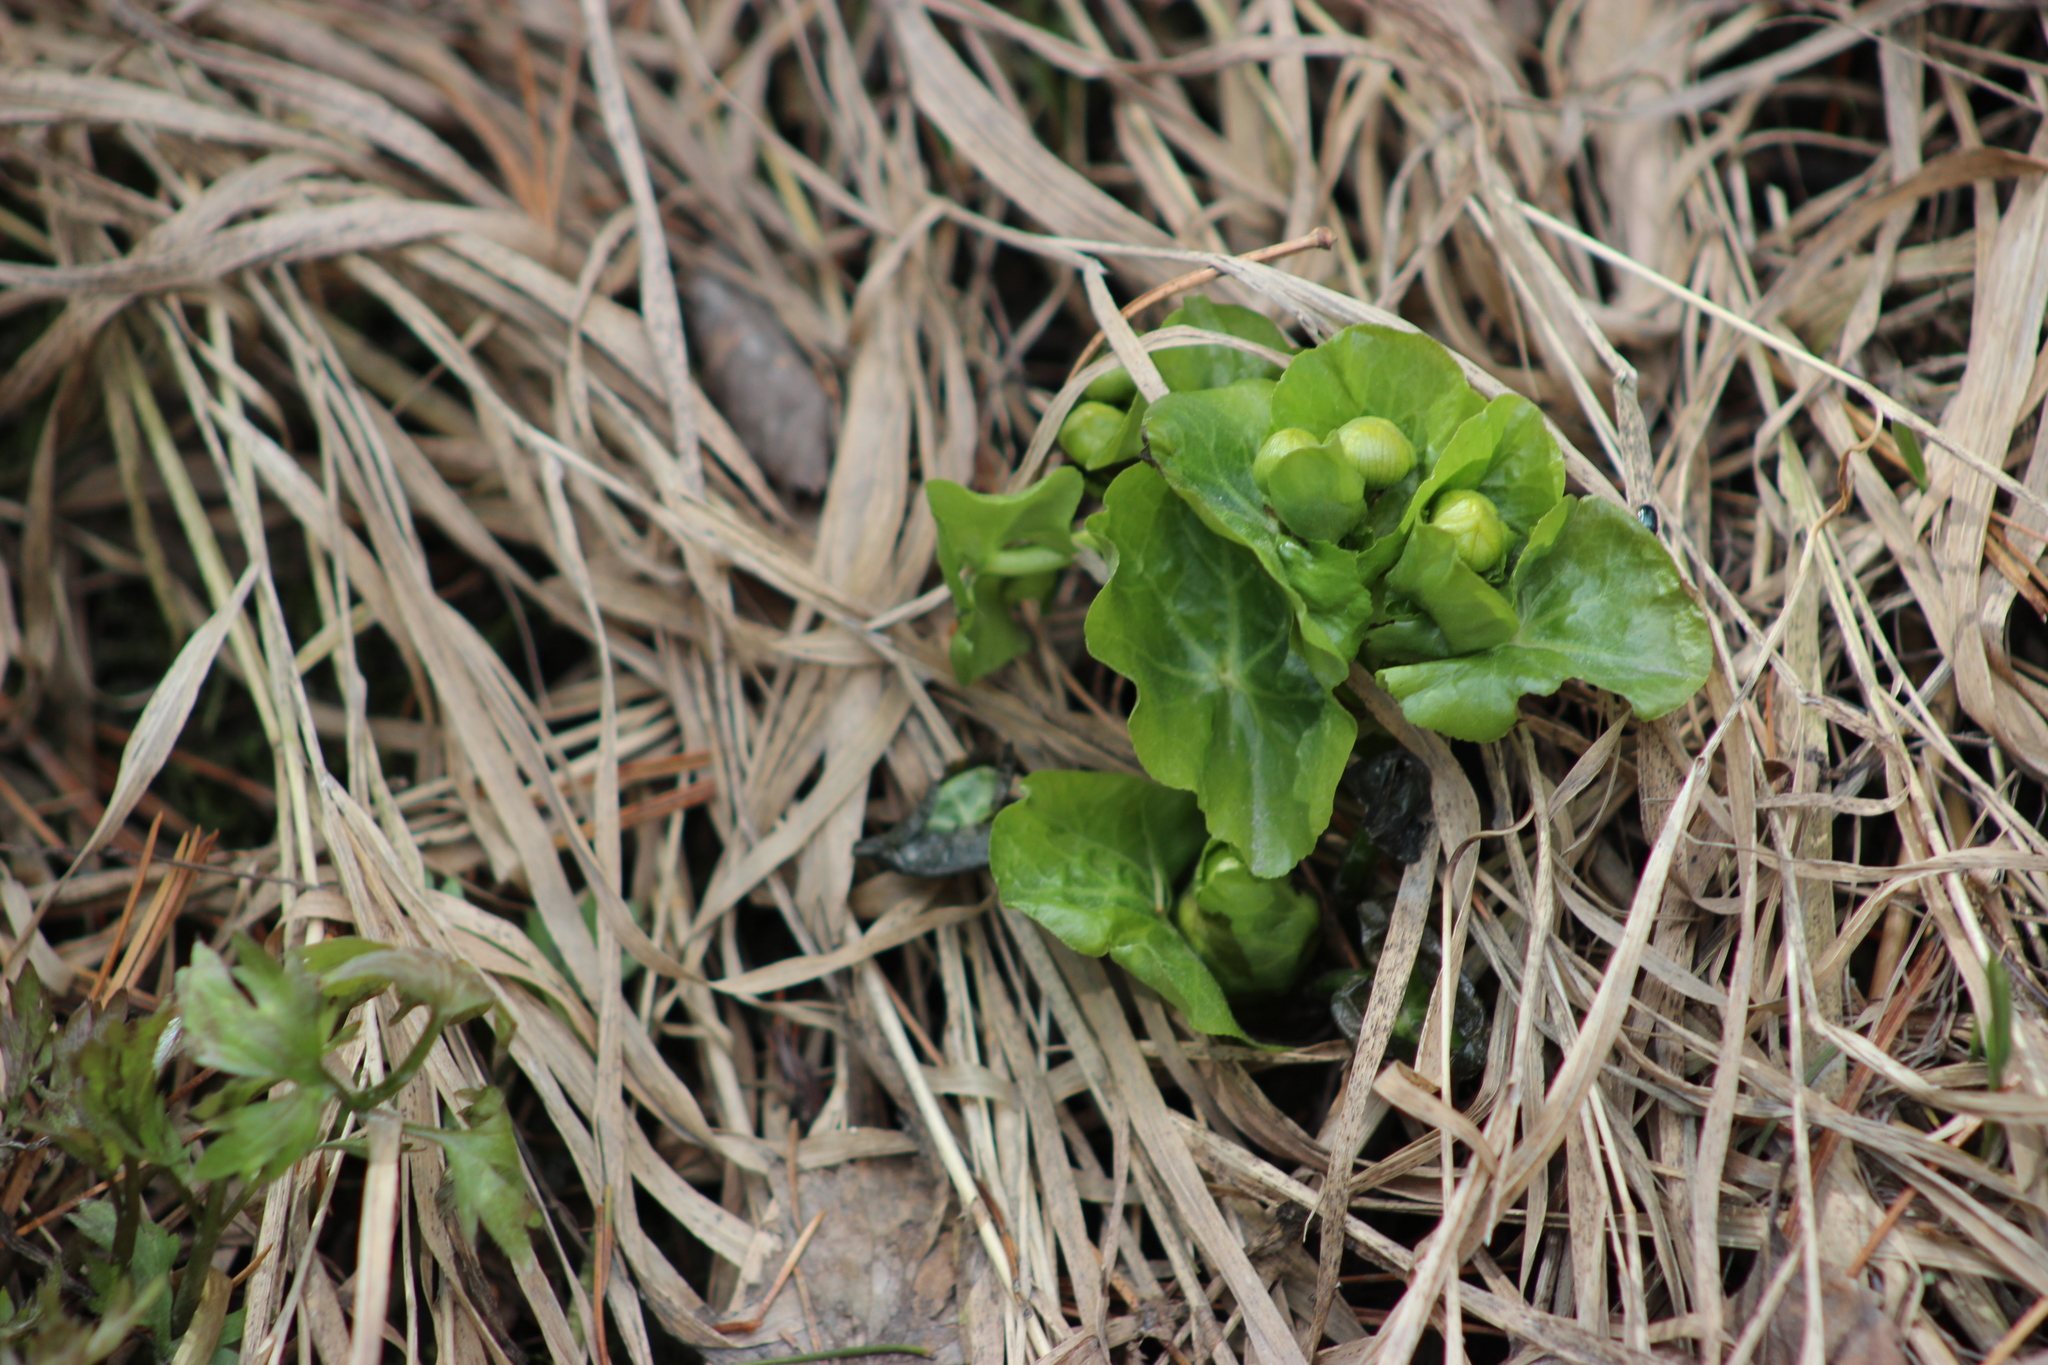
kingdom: Plantae
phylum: Tracheophyta
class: Magnoliopsida
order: Ranunculales
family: Ranunculaceae
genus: Caltha
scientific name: Caltha palustris
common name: Marsh marigold
